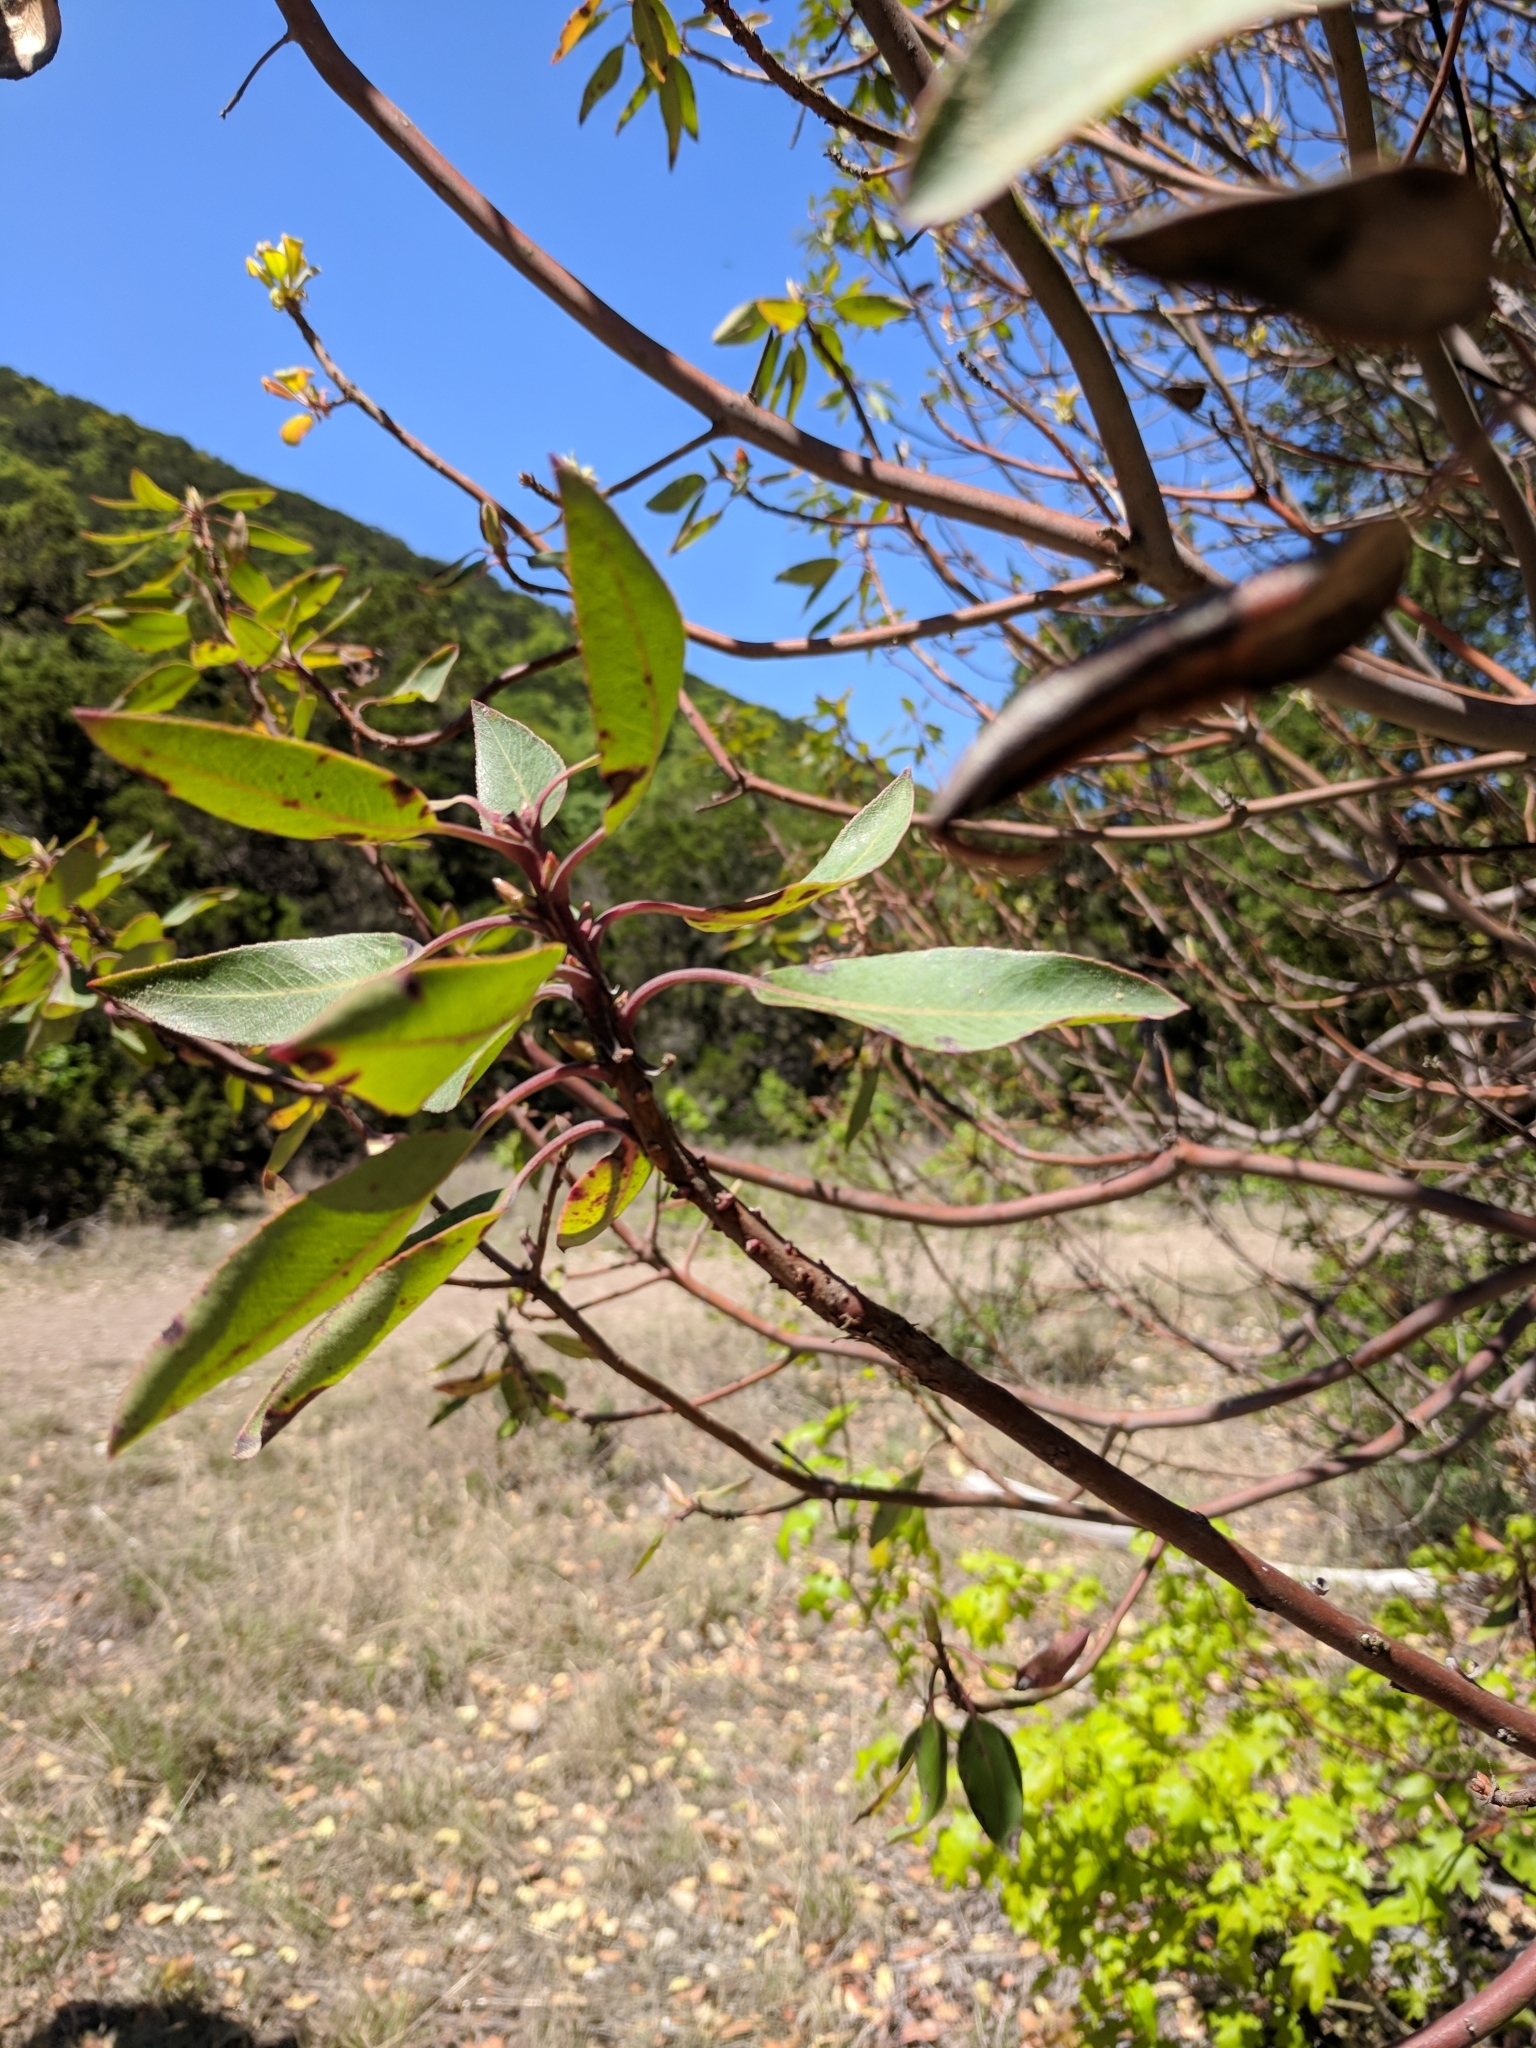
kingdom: Plantae
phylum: Tracheophyta
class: Magnoliopsida
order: Ericales
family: Ericaceae
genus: Arbutus
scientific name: Arbutus xalapensis
